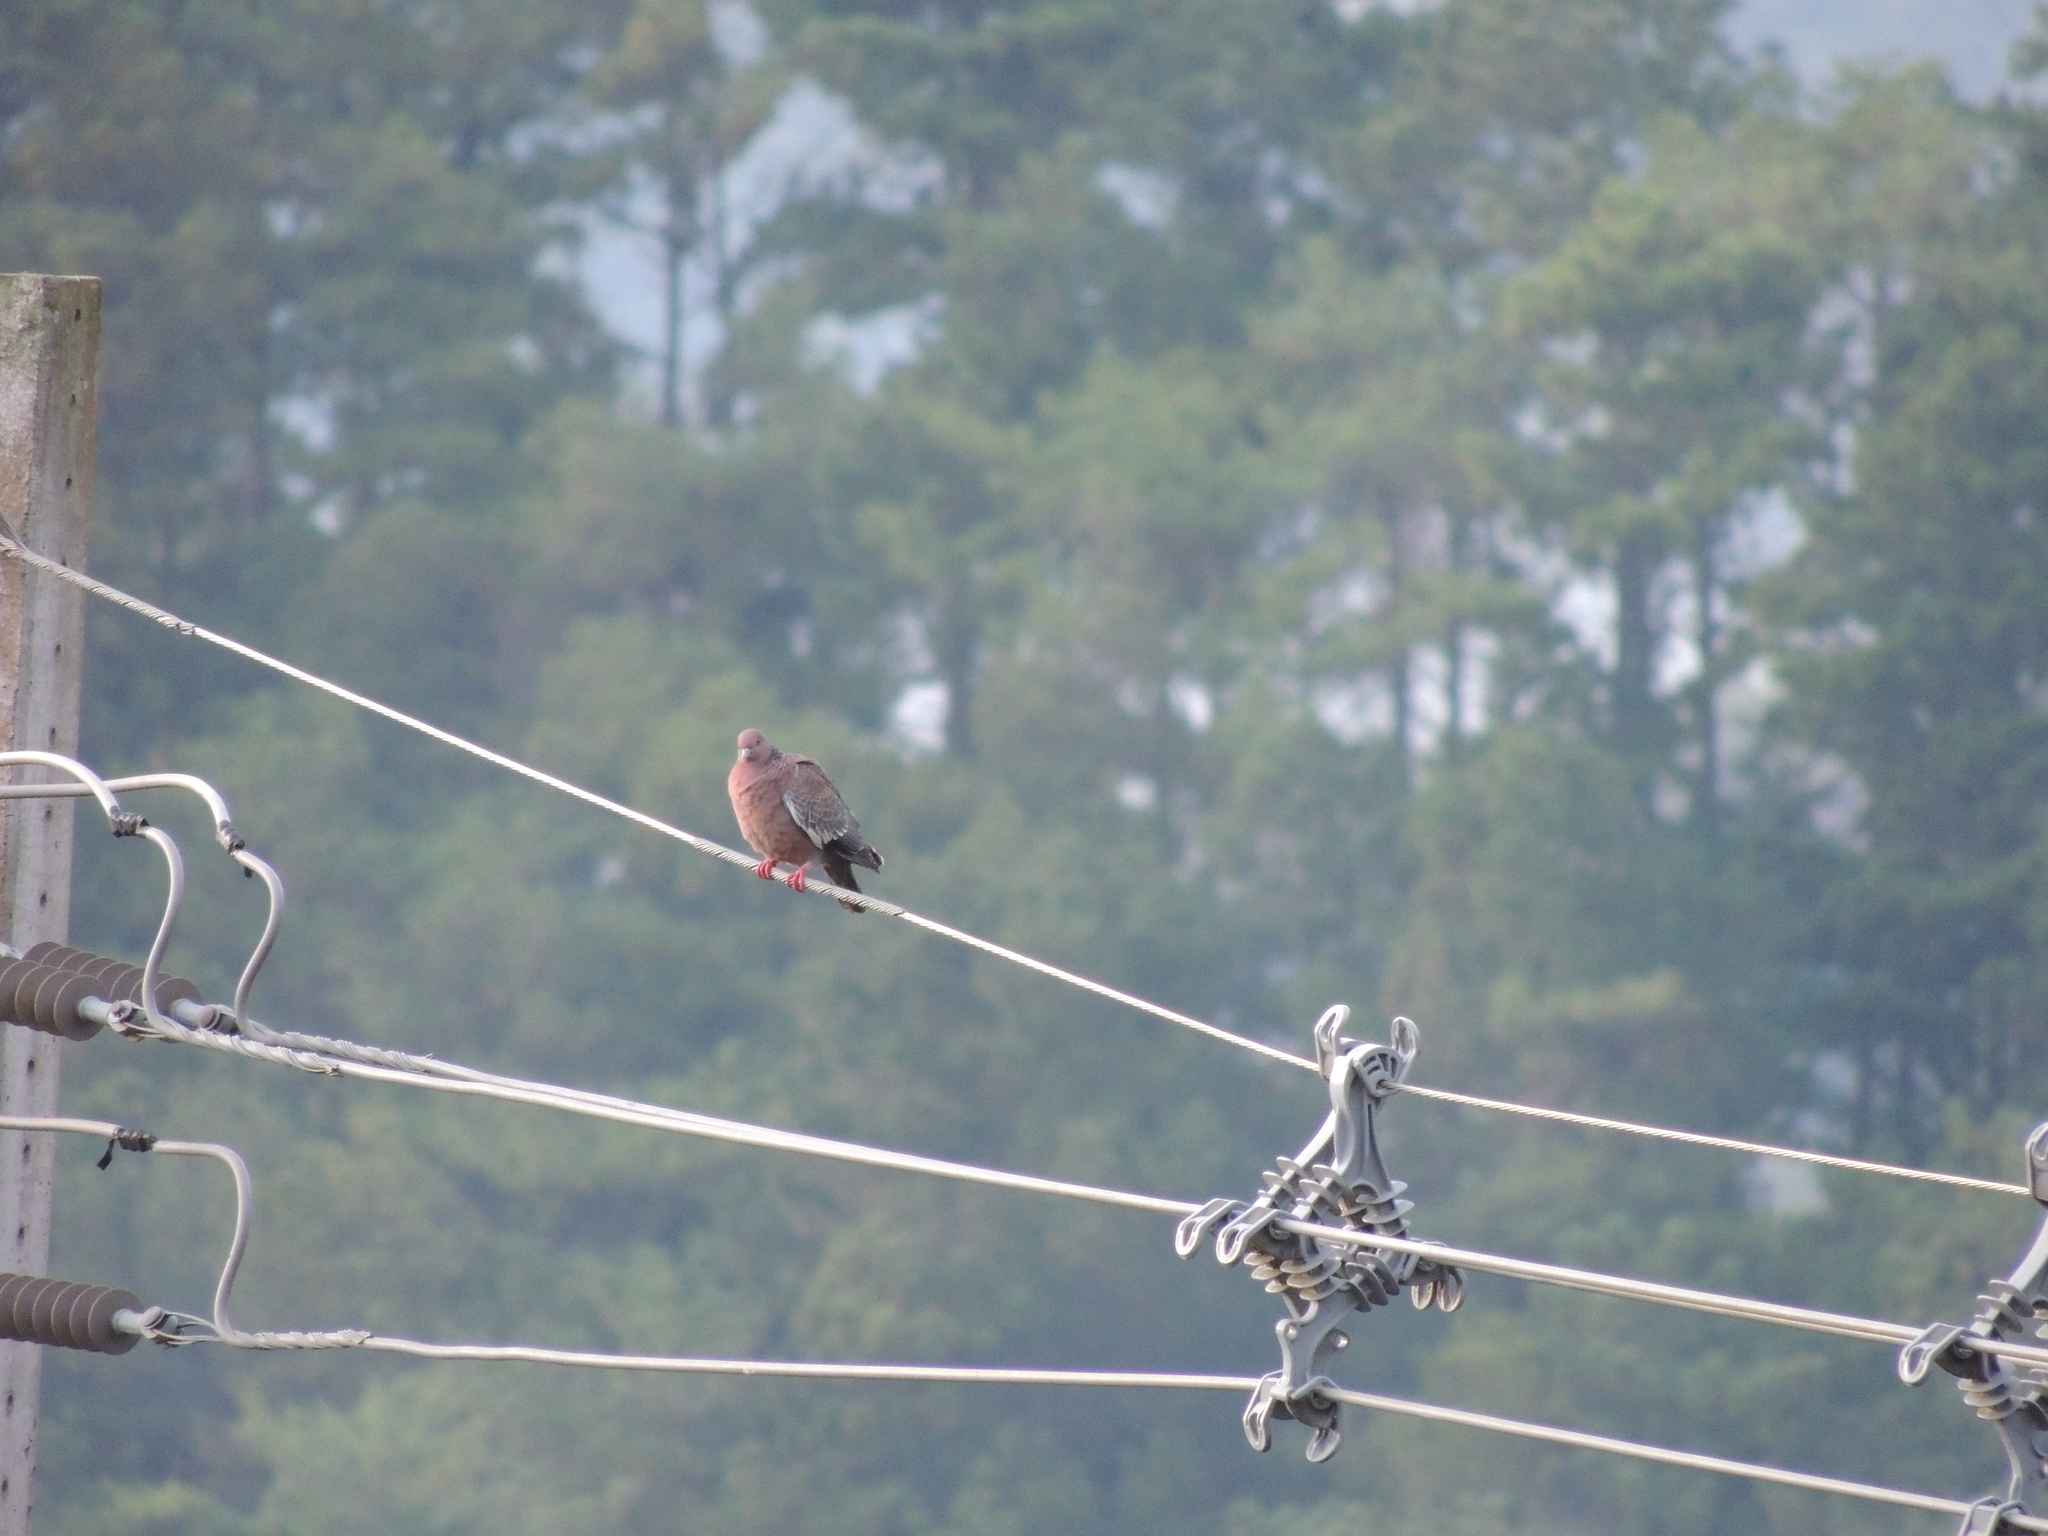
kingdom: Animalia
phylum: Chordata
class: Aves
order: Columbiformes
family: Columbidae
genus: Patagioenas
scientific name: Patagioenas picazuro
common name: Picazuro pigeon
